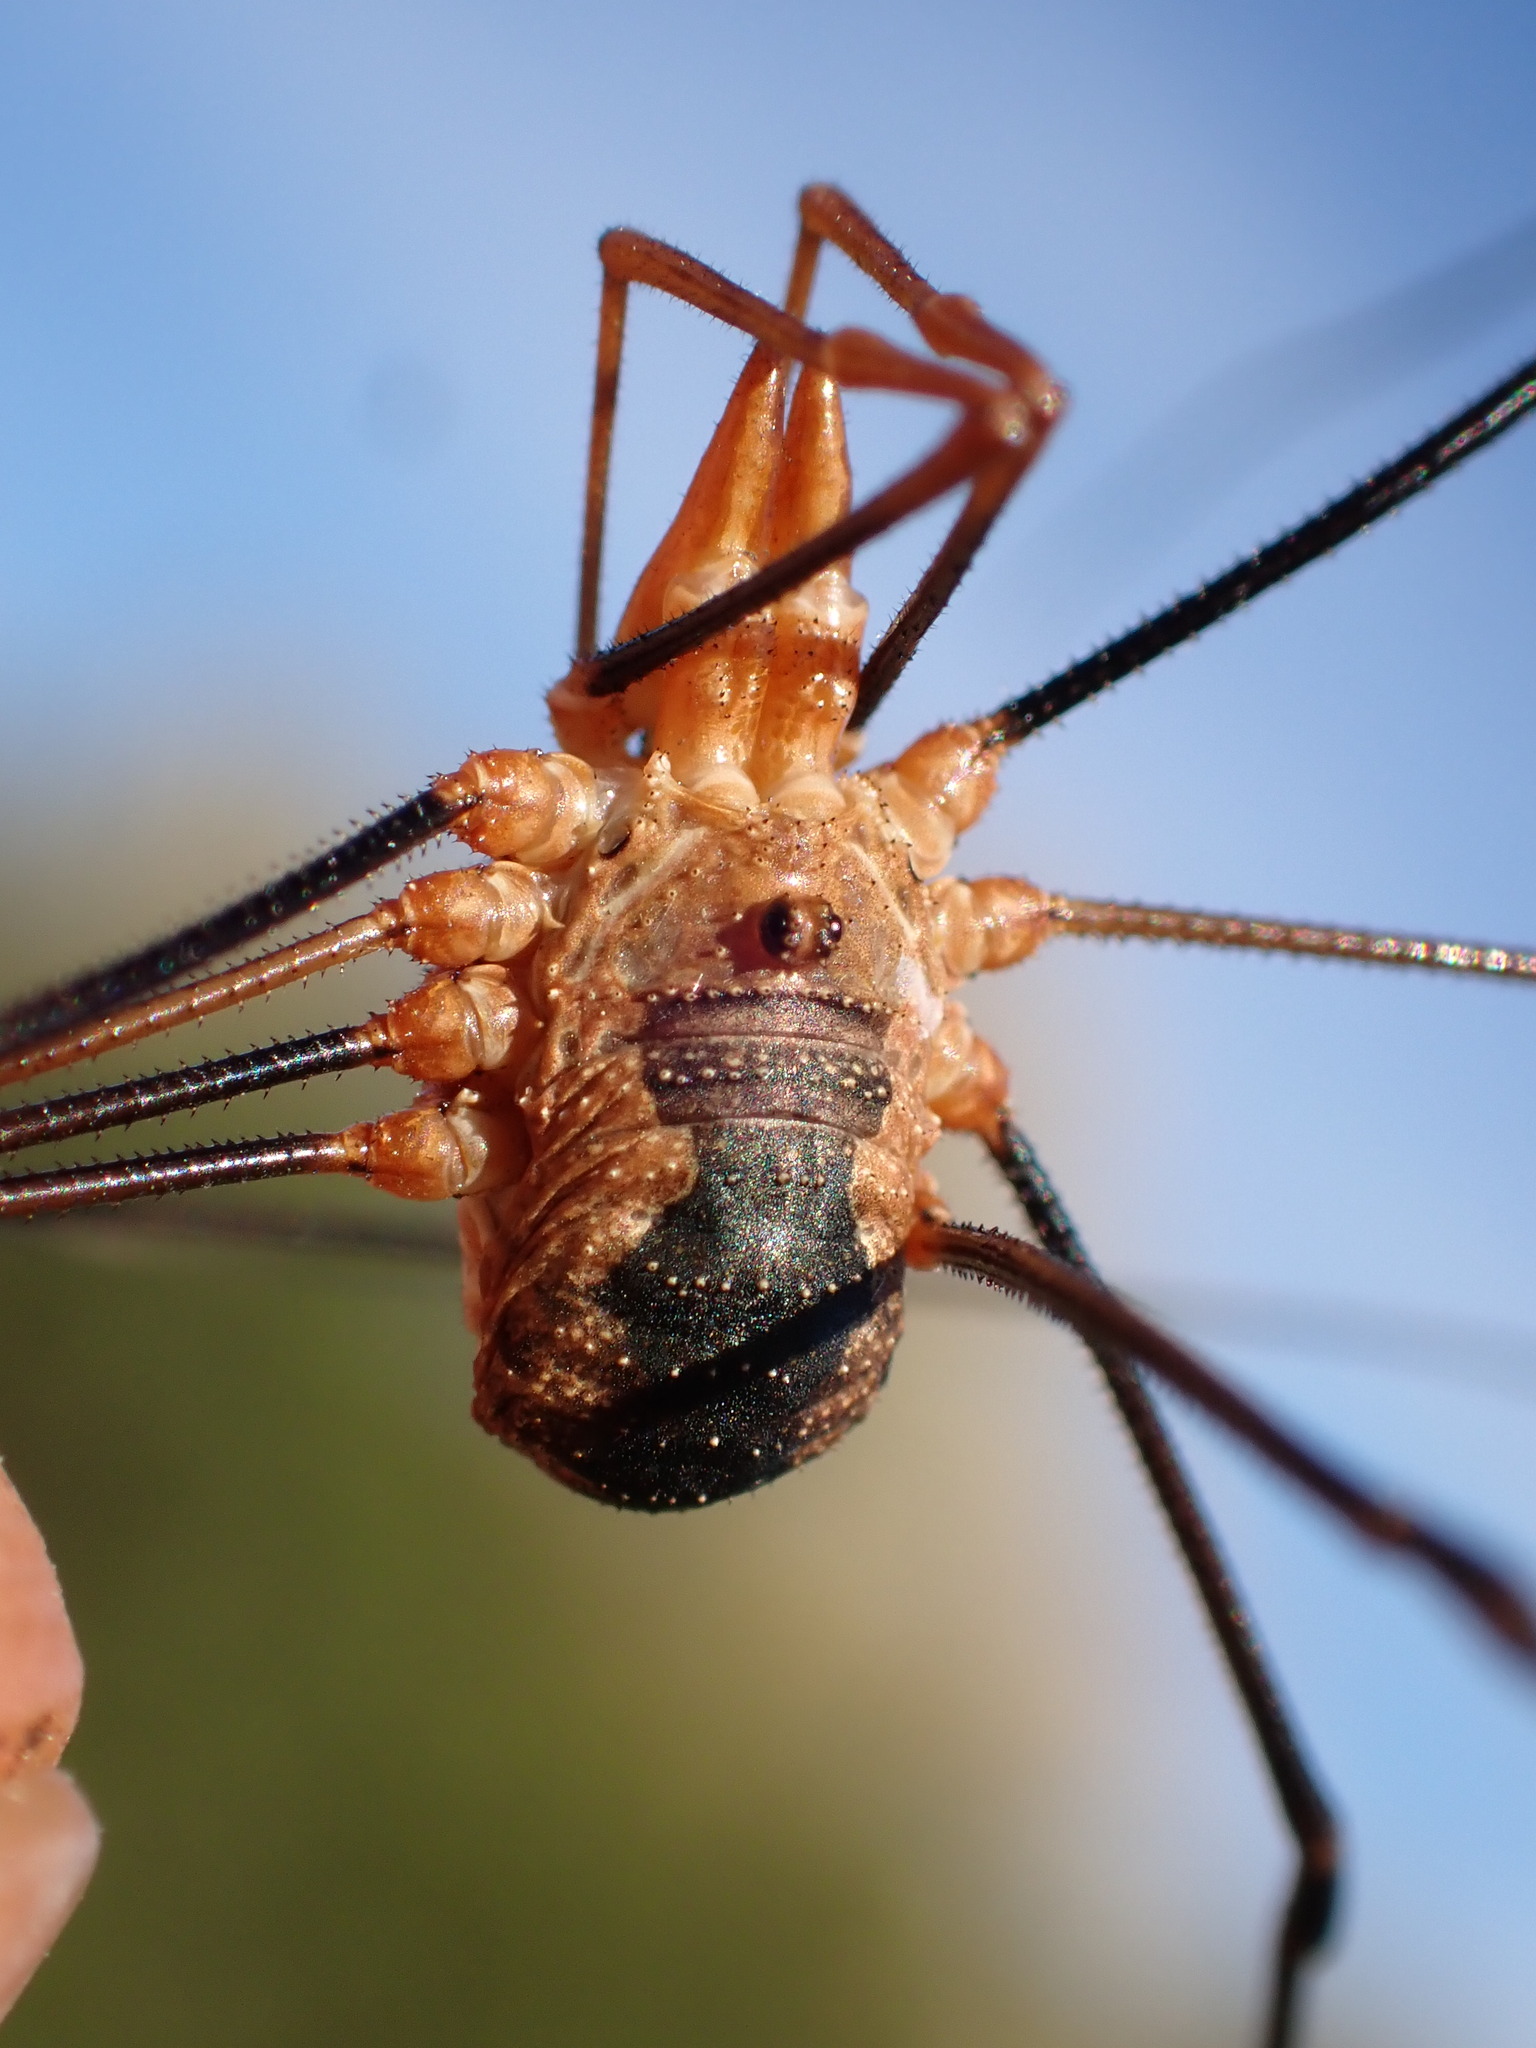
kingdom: Animalia
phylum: Arthropoda
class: Arachnida
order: Opiliones
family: Phalangiidae
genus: Phalangium
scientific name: Phalangium opilio
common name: Daddy longleg
